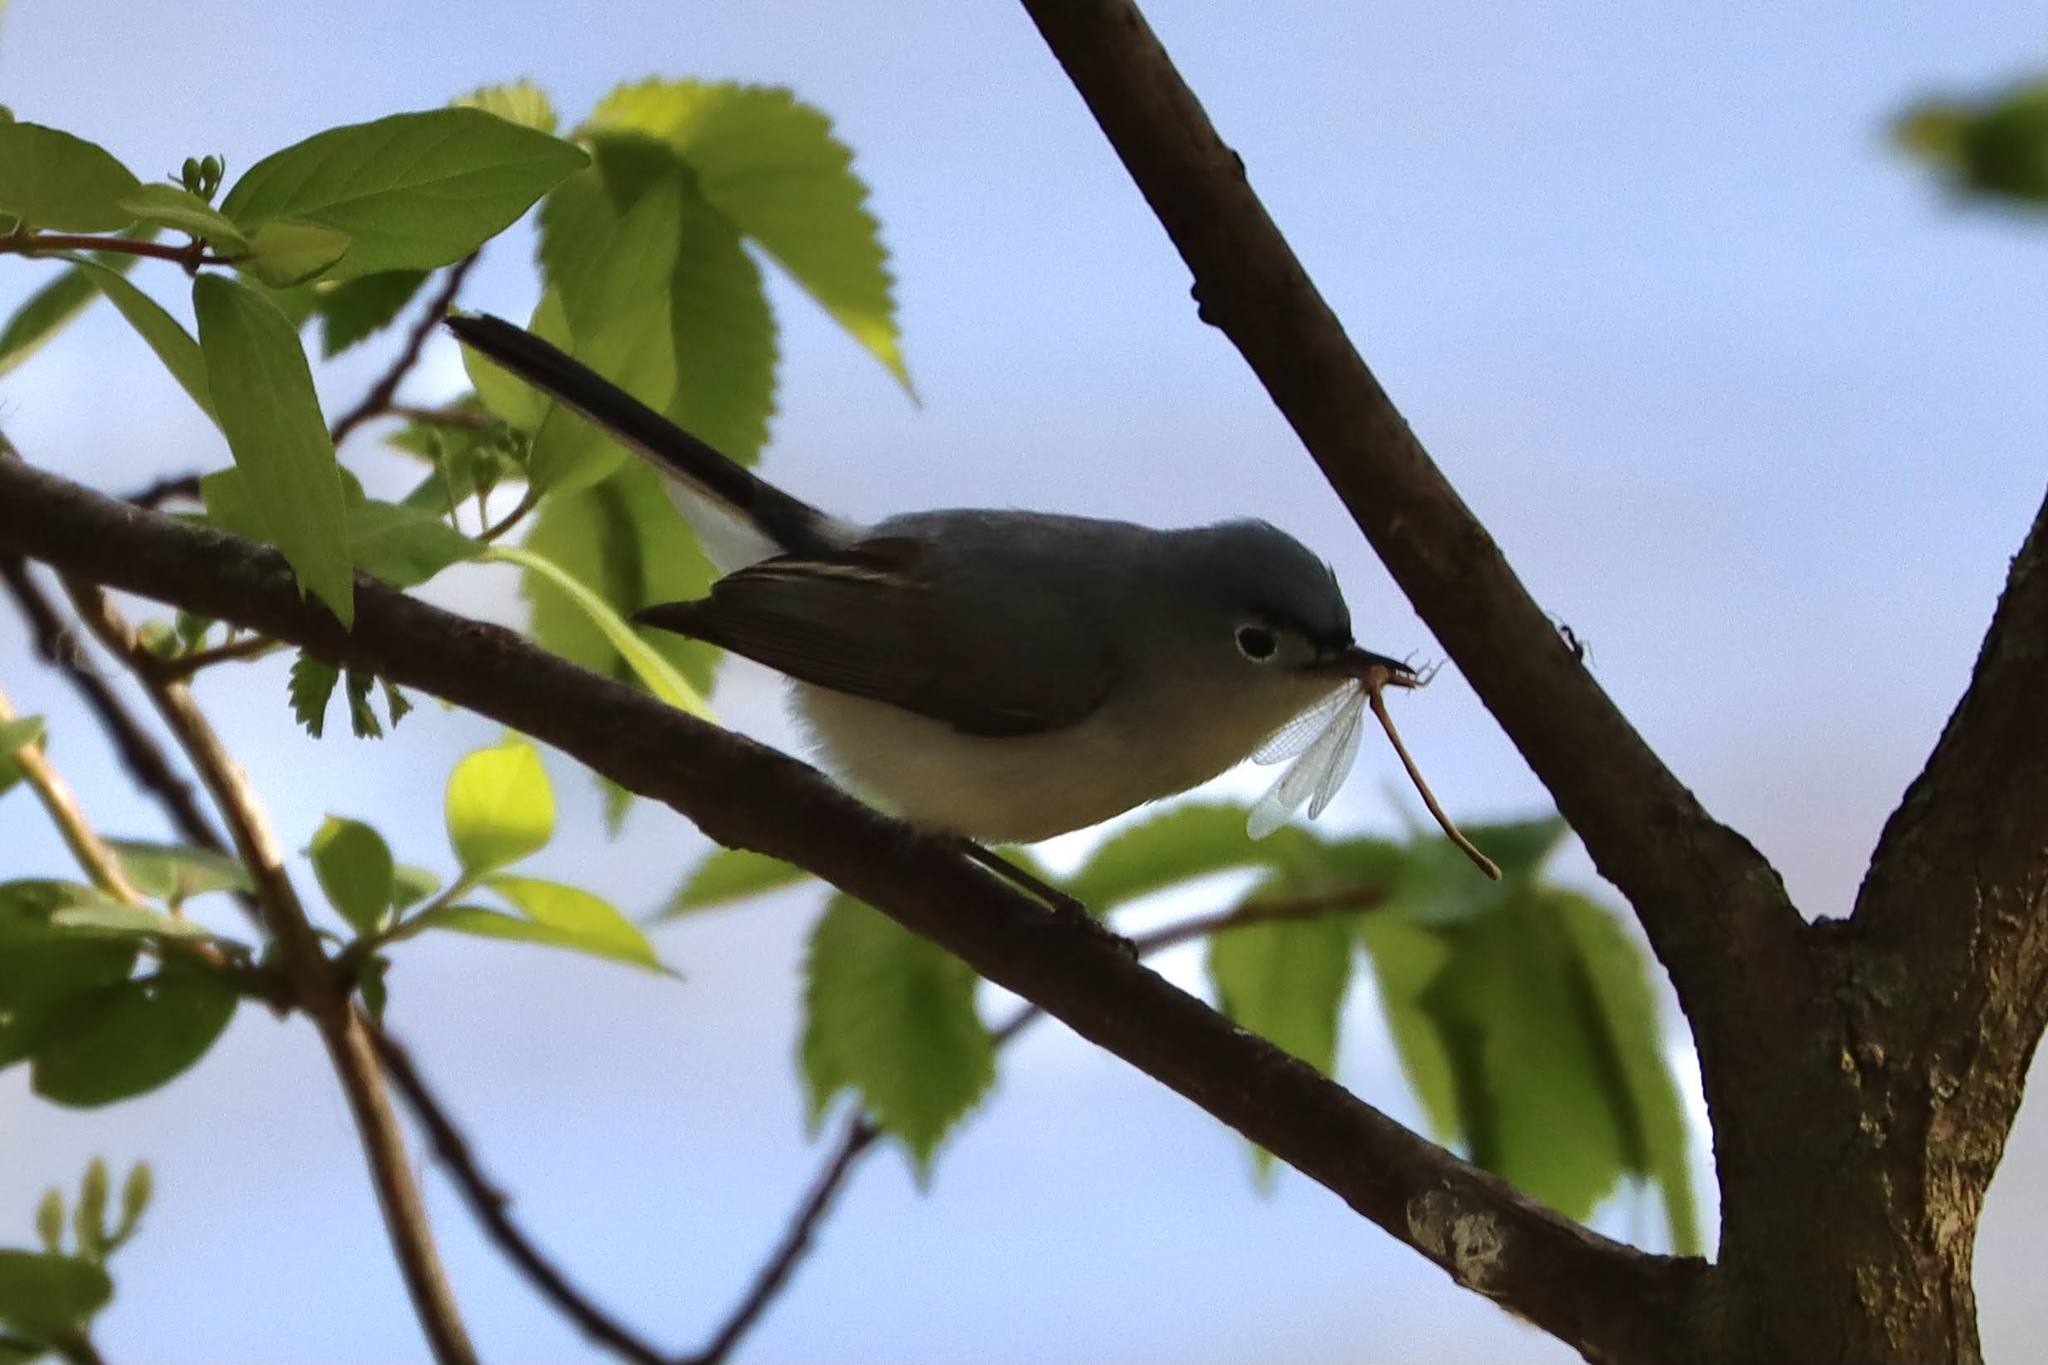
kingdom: Animalia
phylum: Chordata
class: Aves
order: Passeriformes
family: Polioptilidae
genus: Polioptila
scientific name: Polioptila caerulea
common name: Blue-gray gnatcatcher
